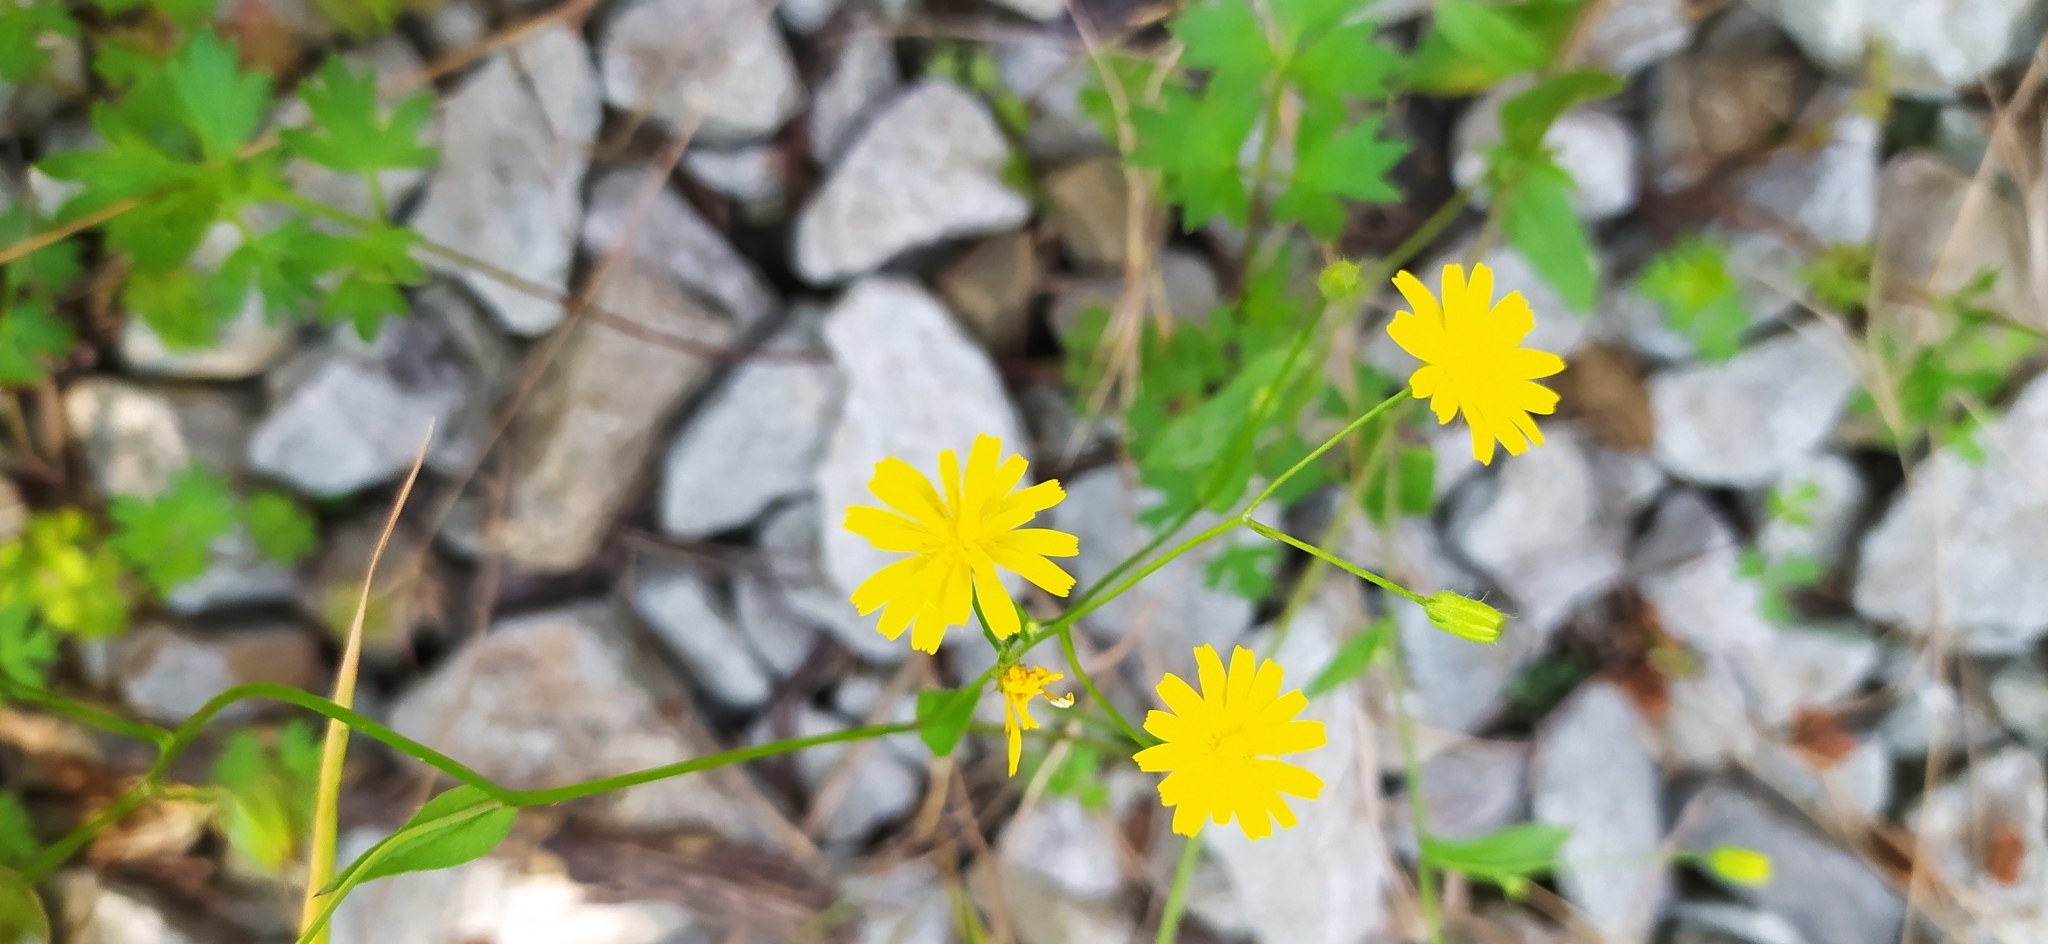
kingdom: Plantae
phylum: Tracheophyta
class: Magnoliopsida
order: Asterales
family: Asteraceae
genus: Lapsana
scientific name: Lapsana communis
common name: Nipplewort
